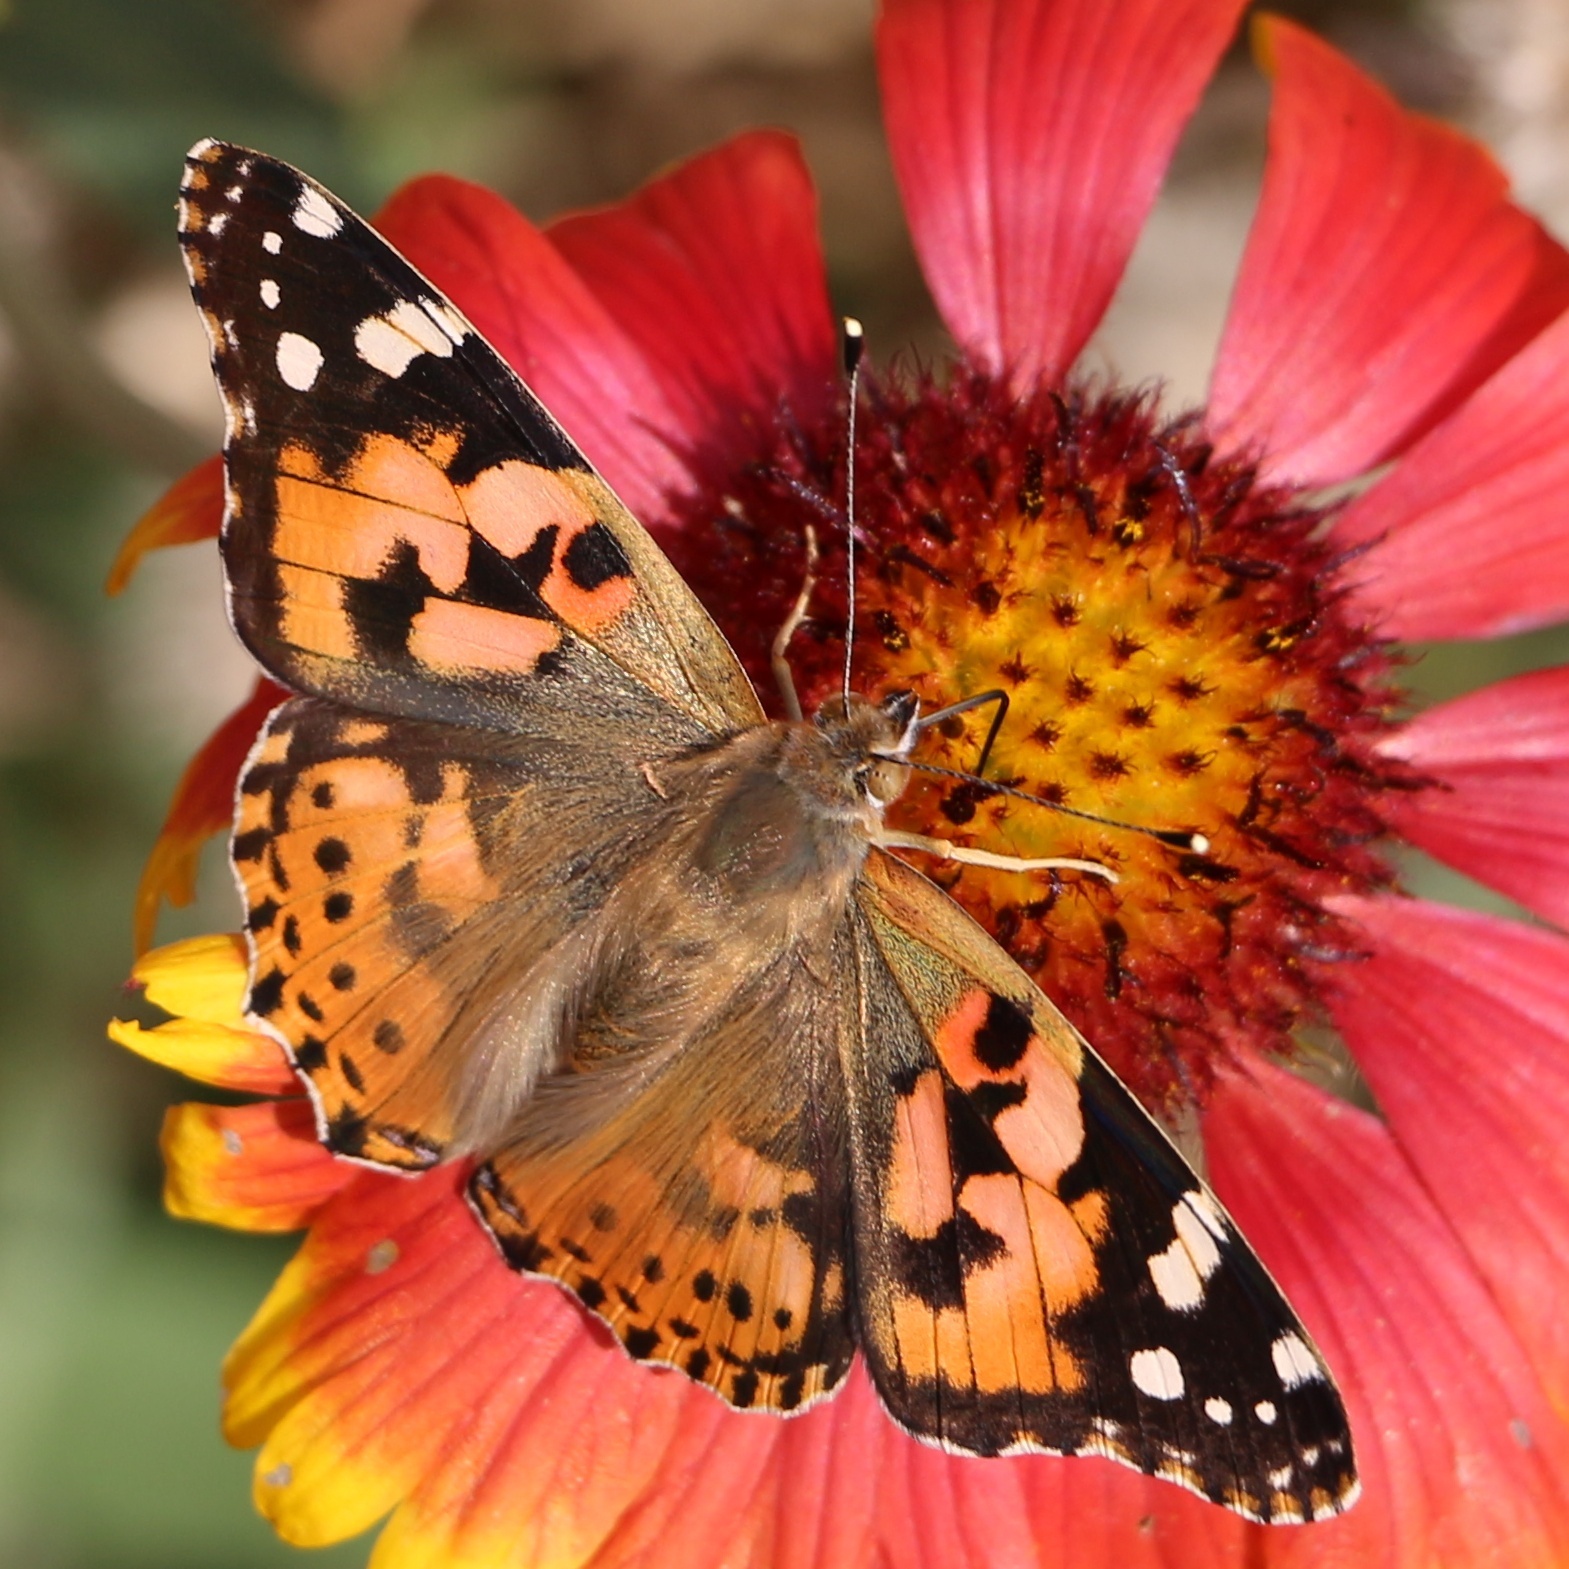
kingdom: Animalia
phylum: Arthropoda
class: Insecta
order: Lepidoptera
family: Nymphalidae
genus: Vanessa
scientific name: Vanessa cardui
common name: Painted lady
